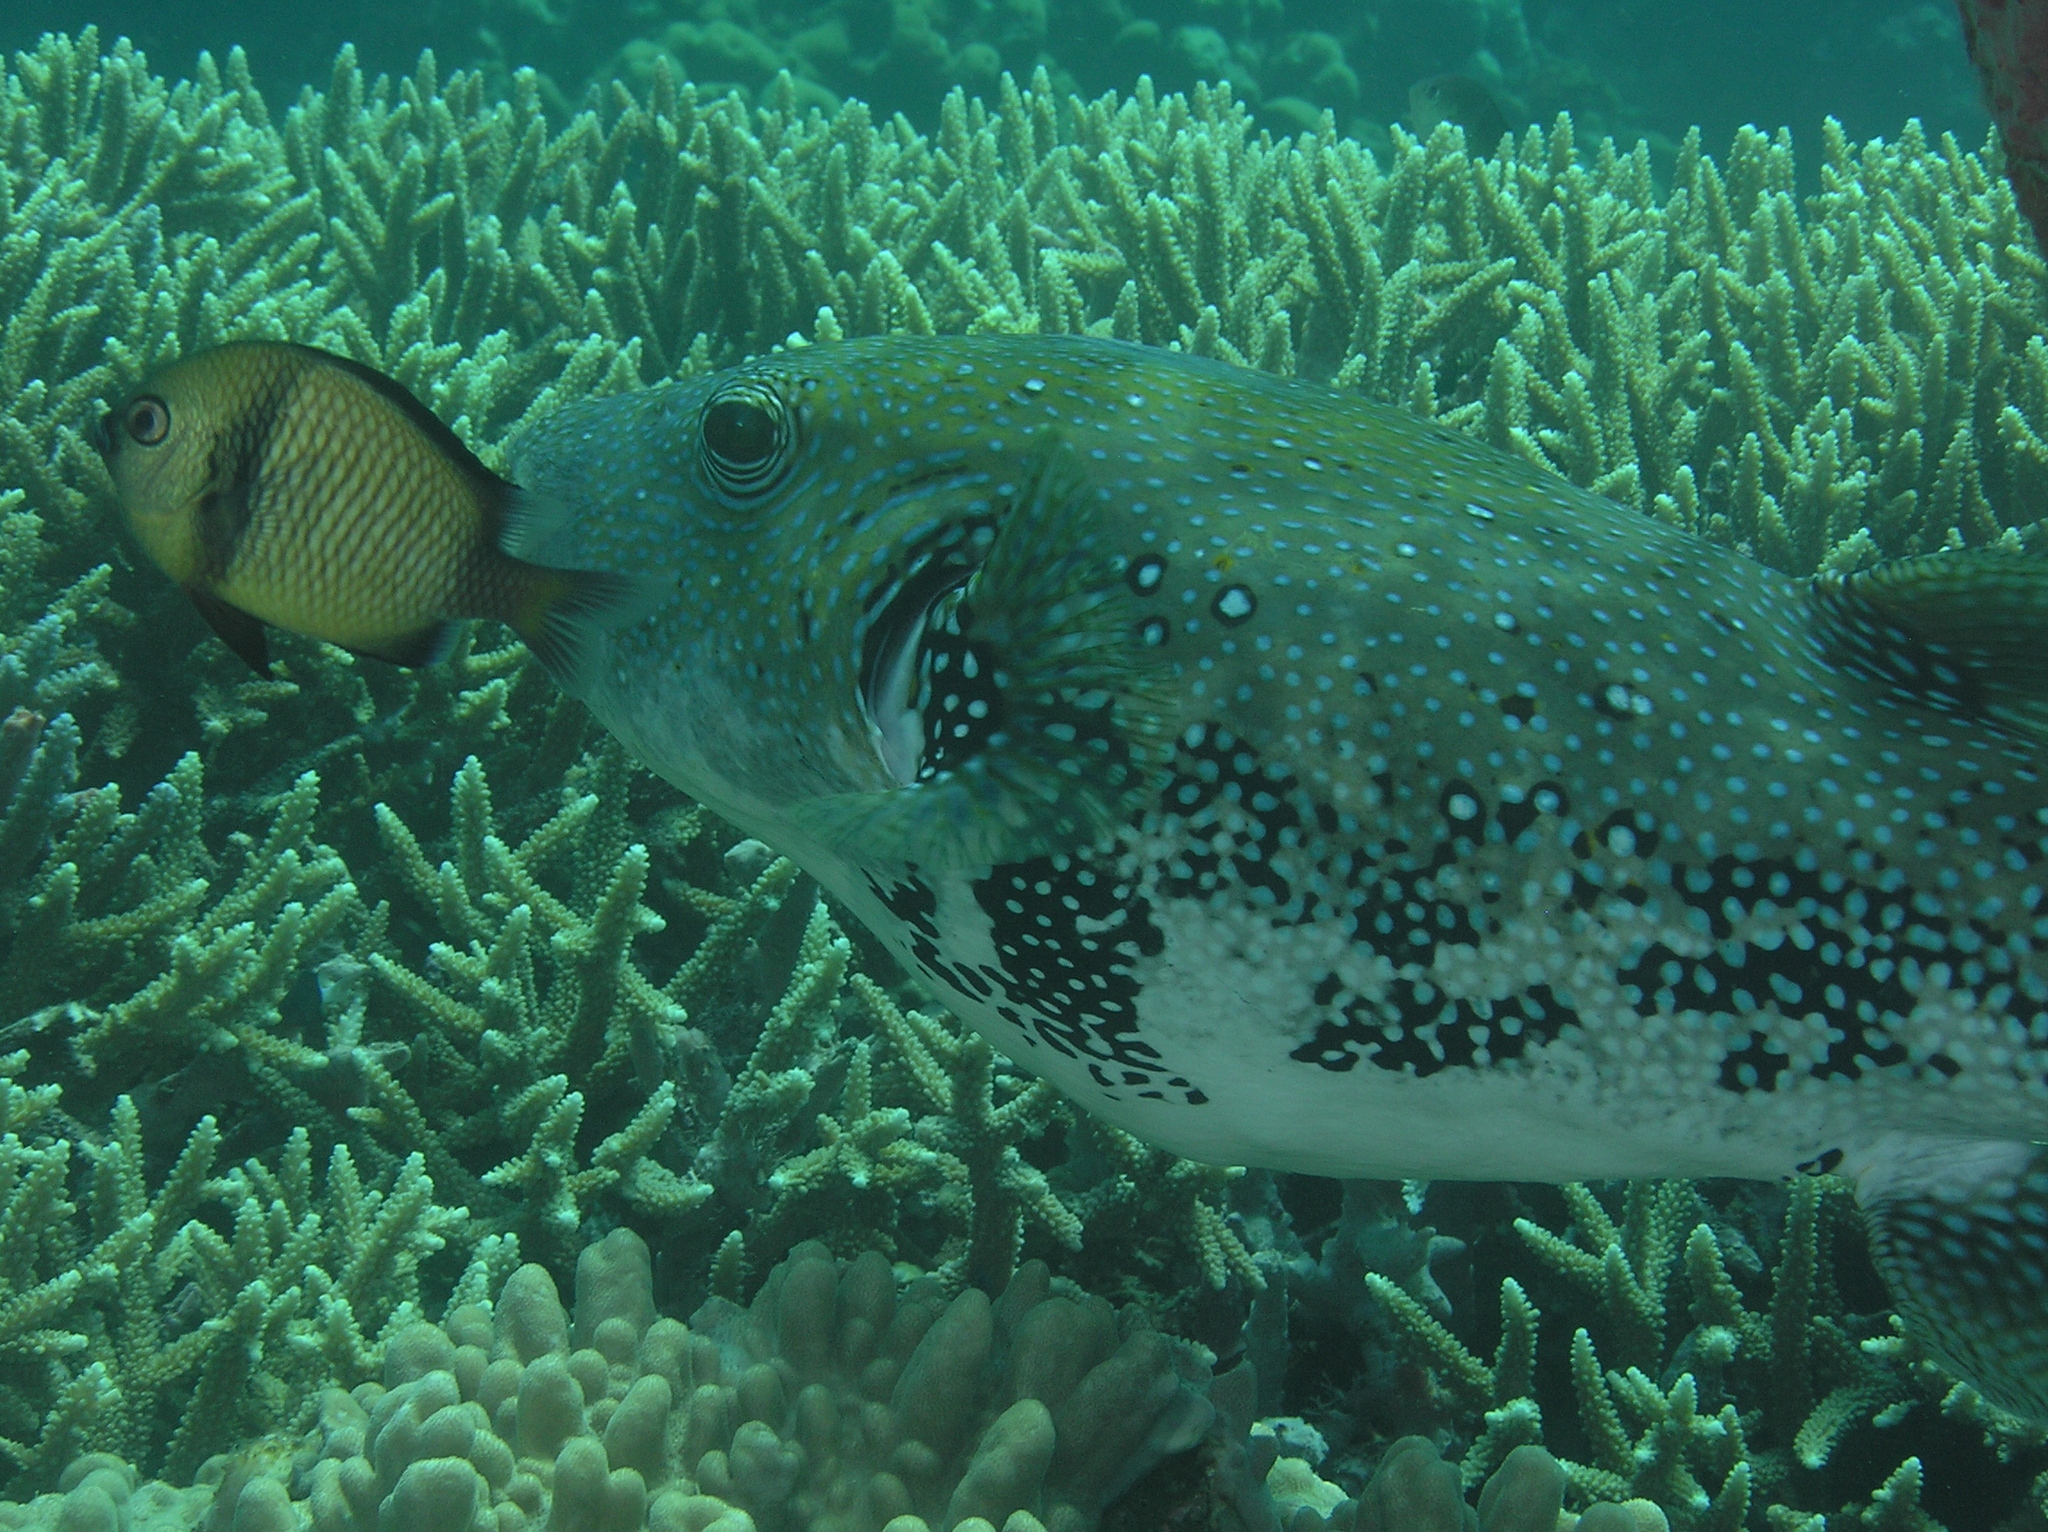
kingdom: Animalia
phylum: Chordata
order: Perciformes
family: Pomacentridae
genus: Dascyllus
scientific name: Dascyllus reticulatus
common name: Reticulated dascyllus
